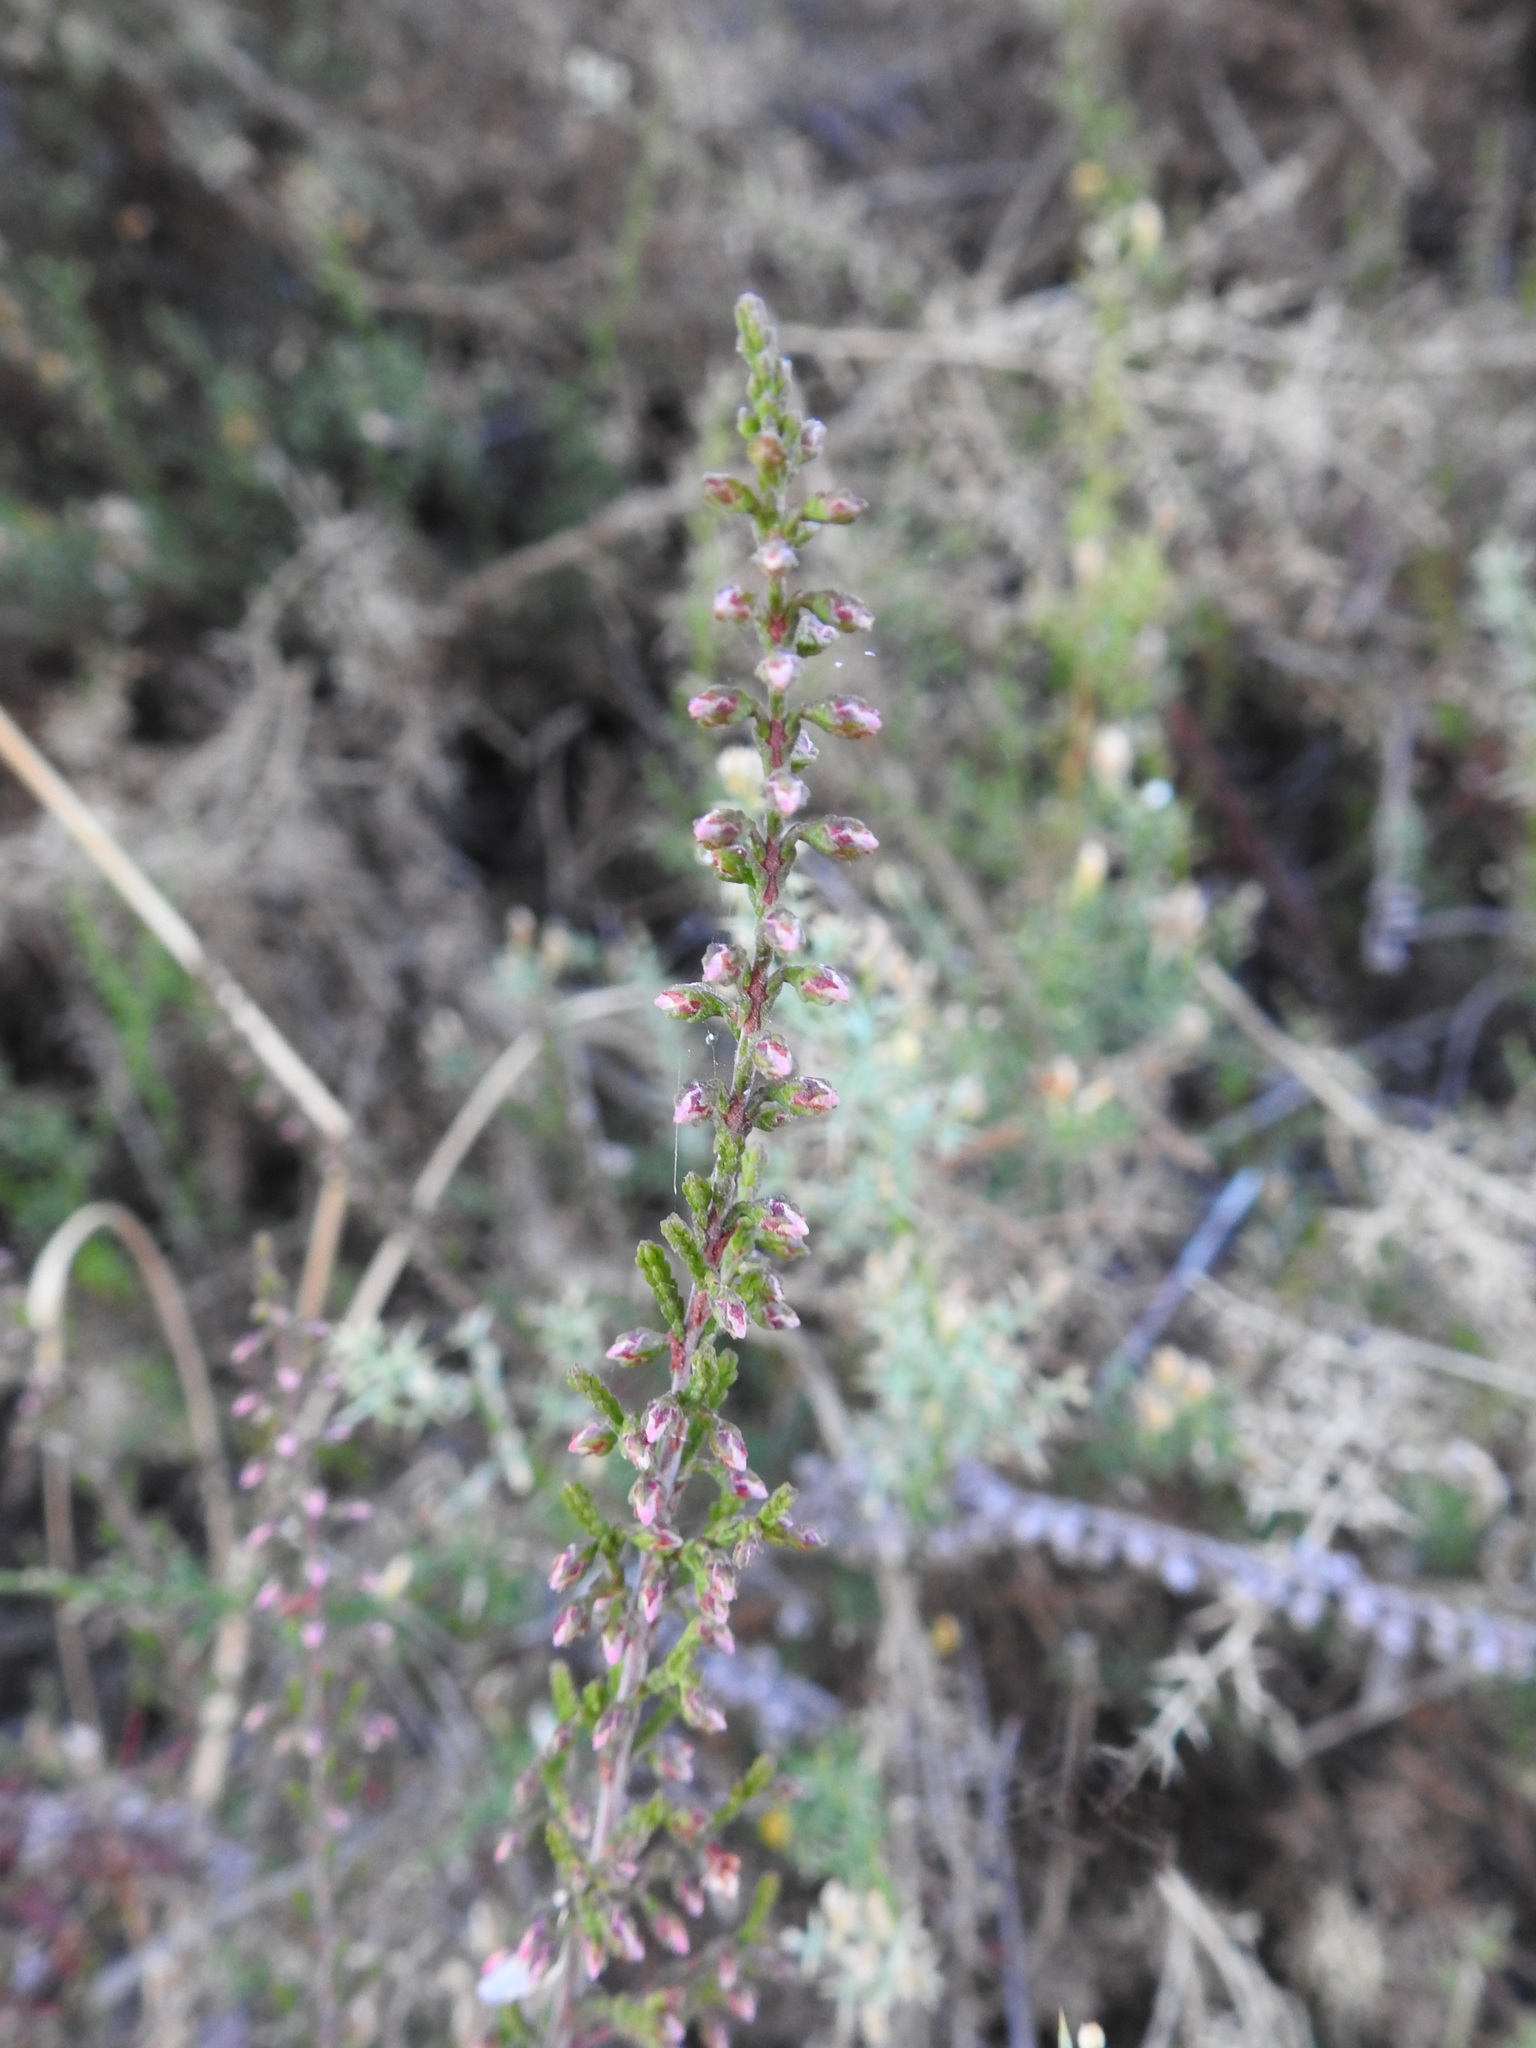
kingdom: Plantae
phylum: Tracheophyta
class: Magnoliopsida
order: Ericales
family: Ericaceae
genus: Calluna
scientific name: Calluna vulgaris
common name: Heather
